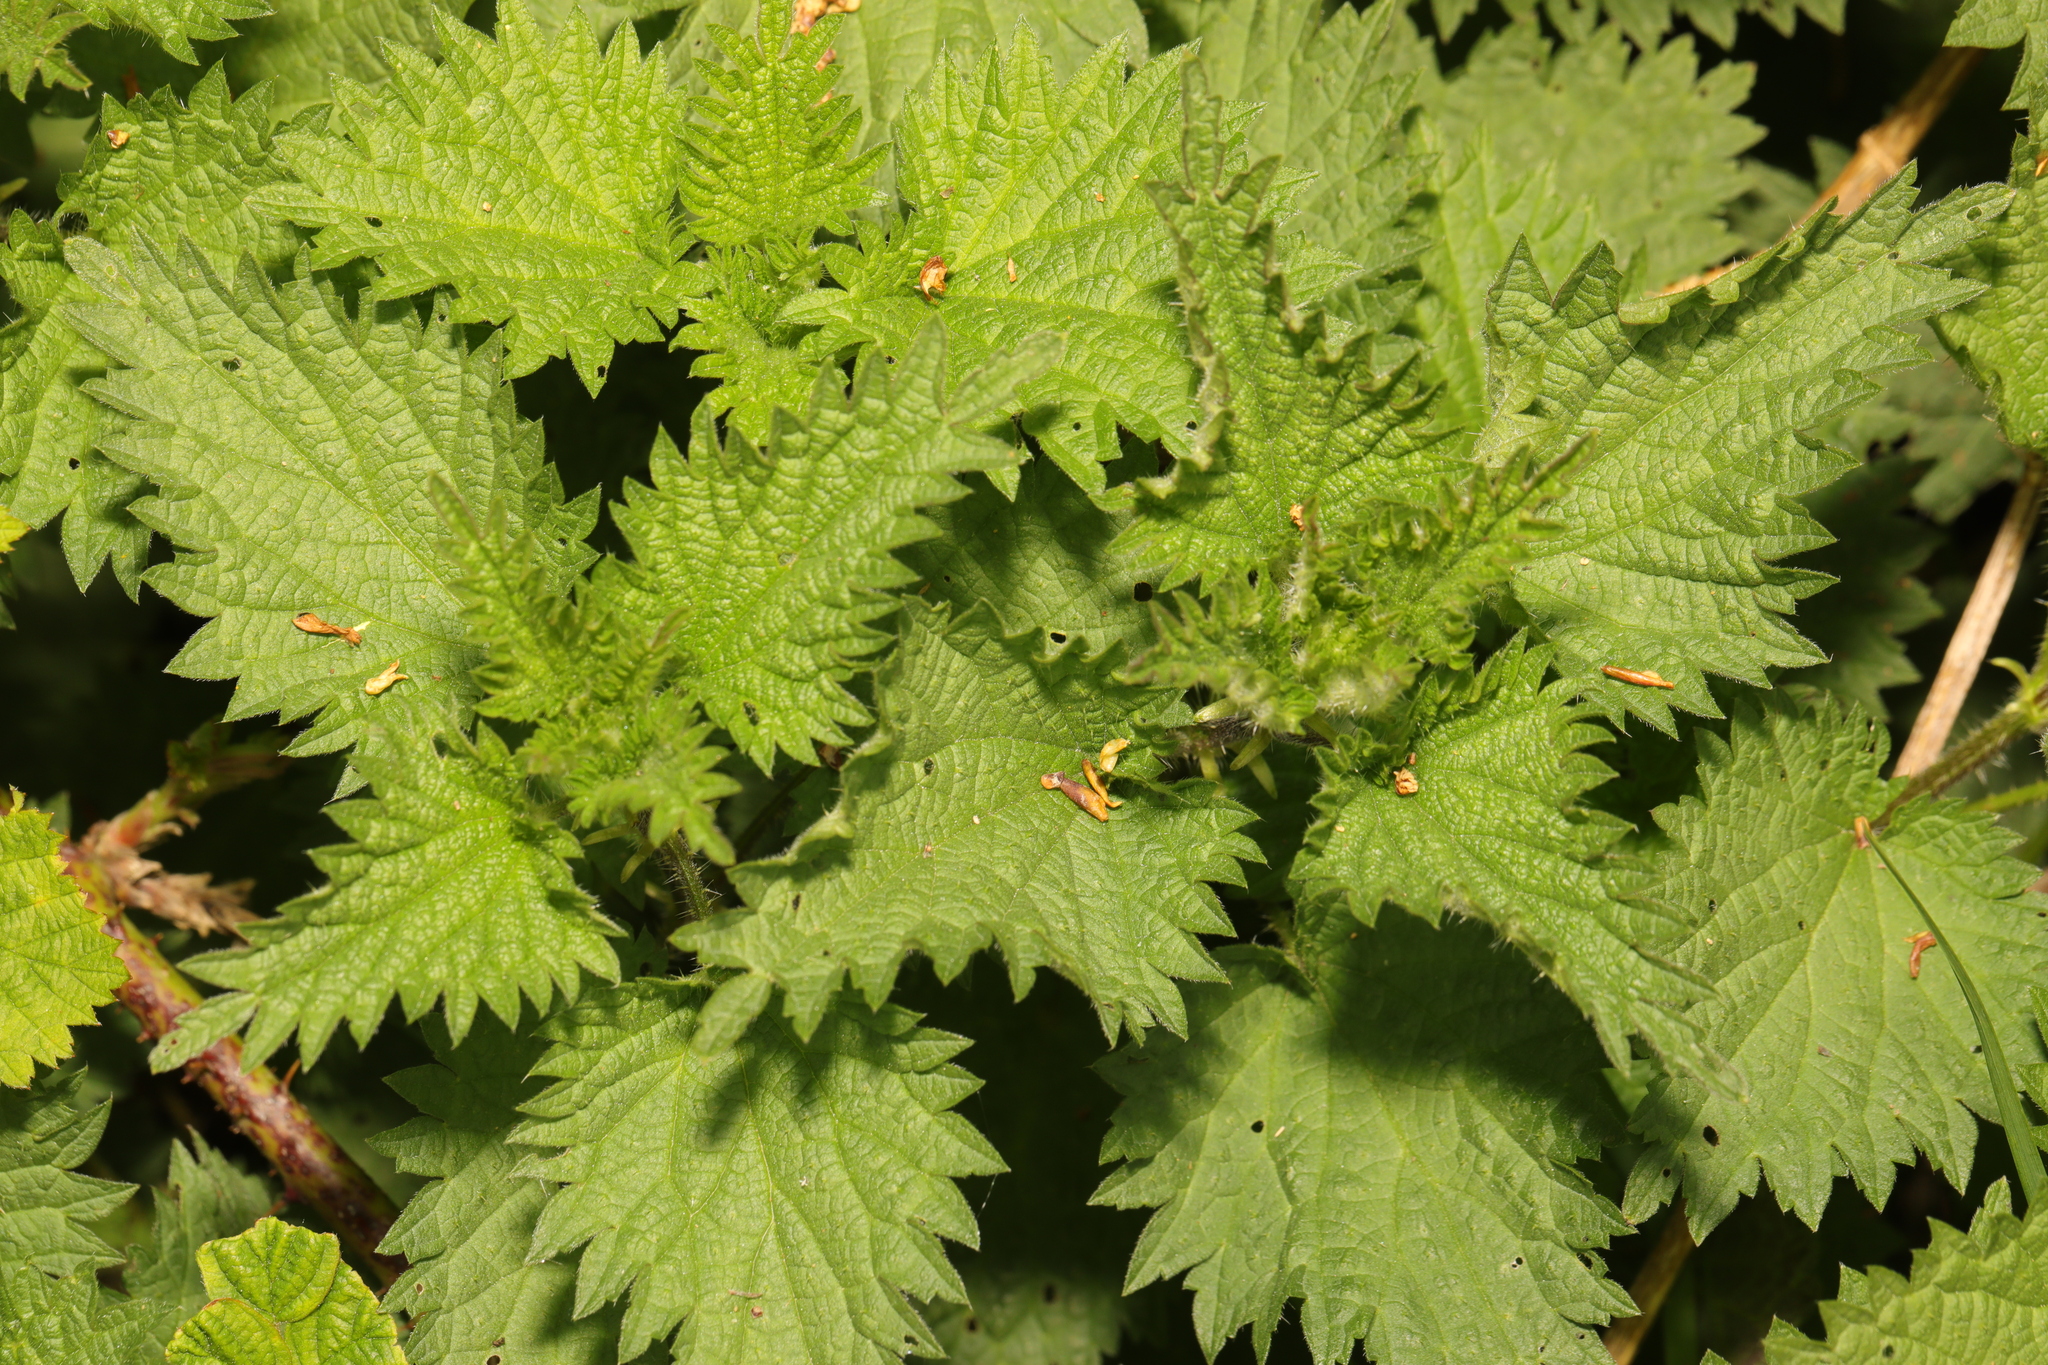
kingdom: Plantae
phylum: Tracheophyta
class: Magnoliopsida
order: Rosales
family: Urticaceae
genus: Urtica
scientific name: Urtica dioica
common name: Common nettle
